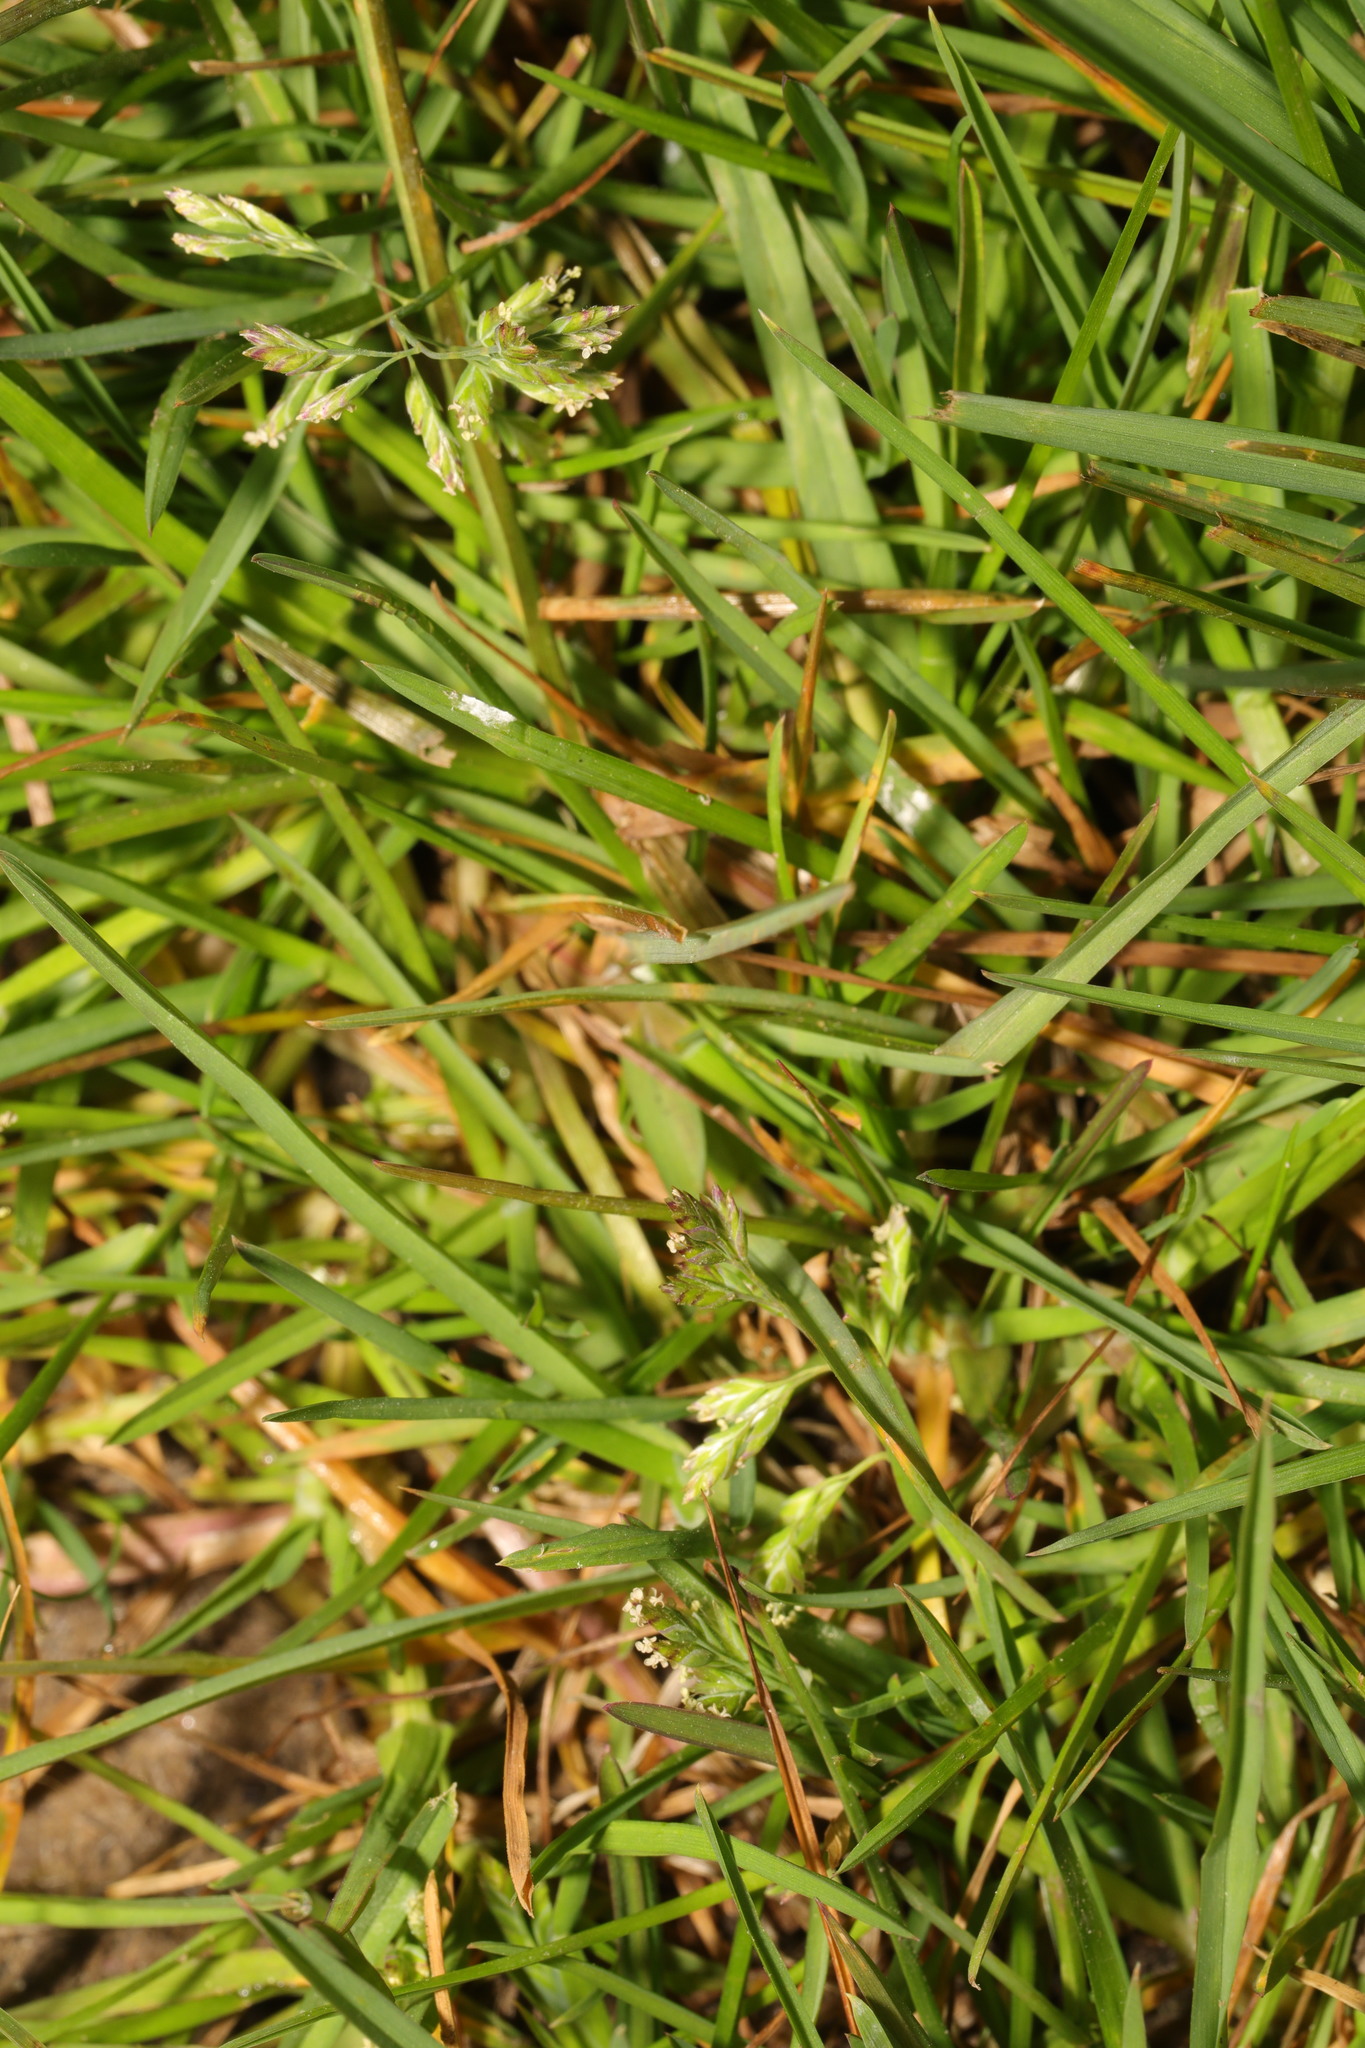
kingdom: Plantae
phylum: Tracheophyta
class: Liliopsida
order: Poales
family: Poaceae
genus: Poa
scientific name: Poa annua
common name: Annual bluegrass
